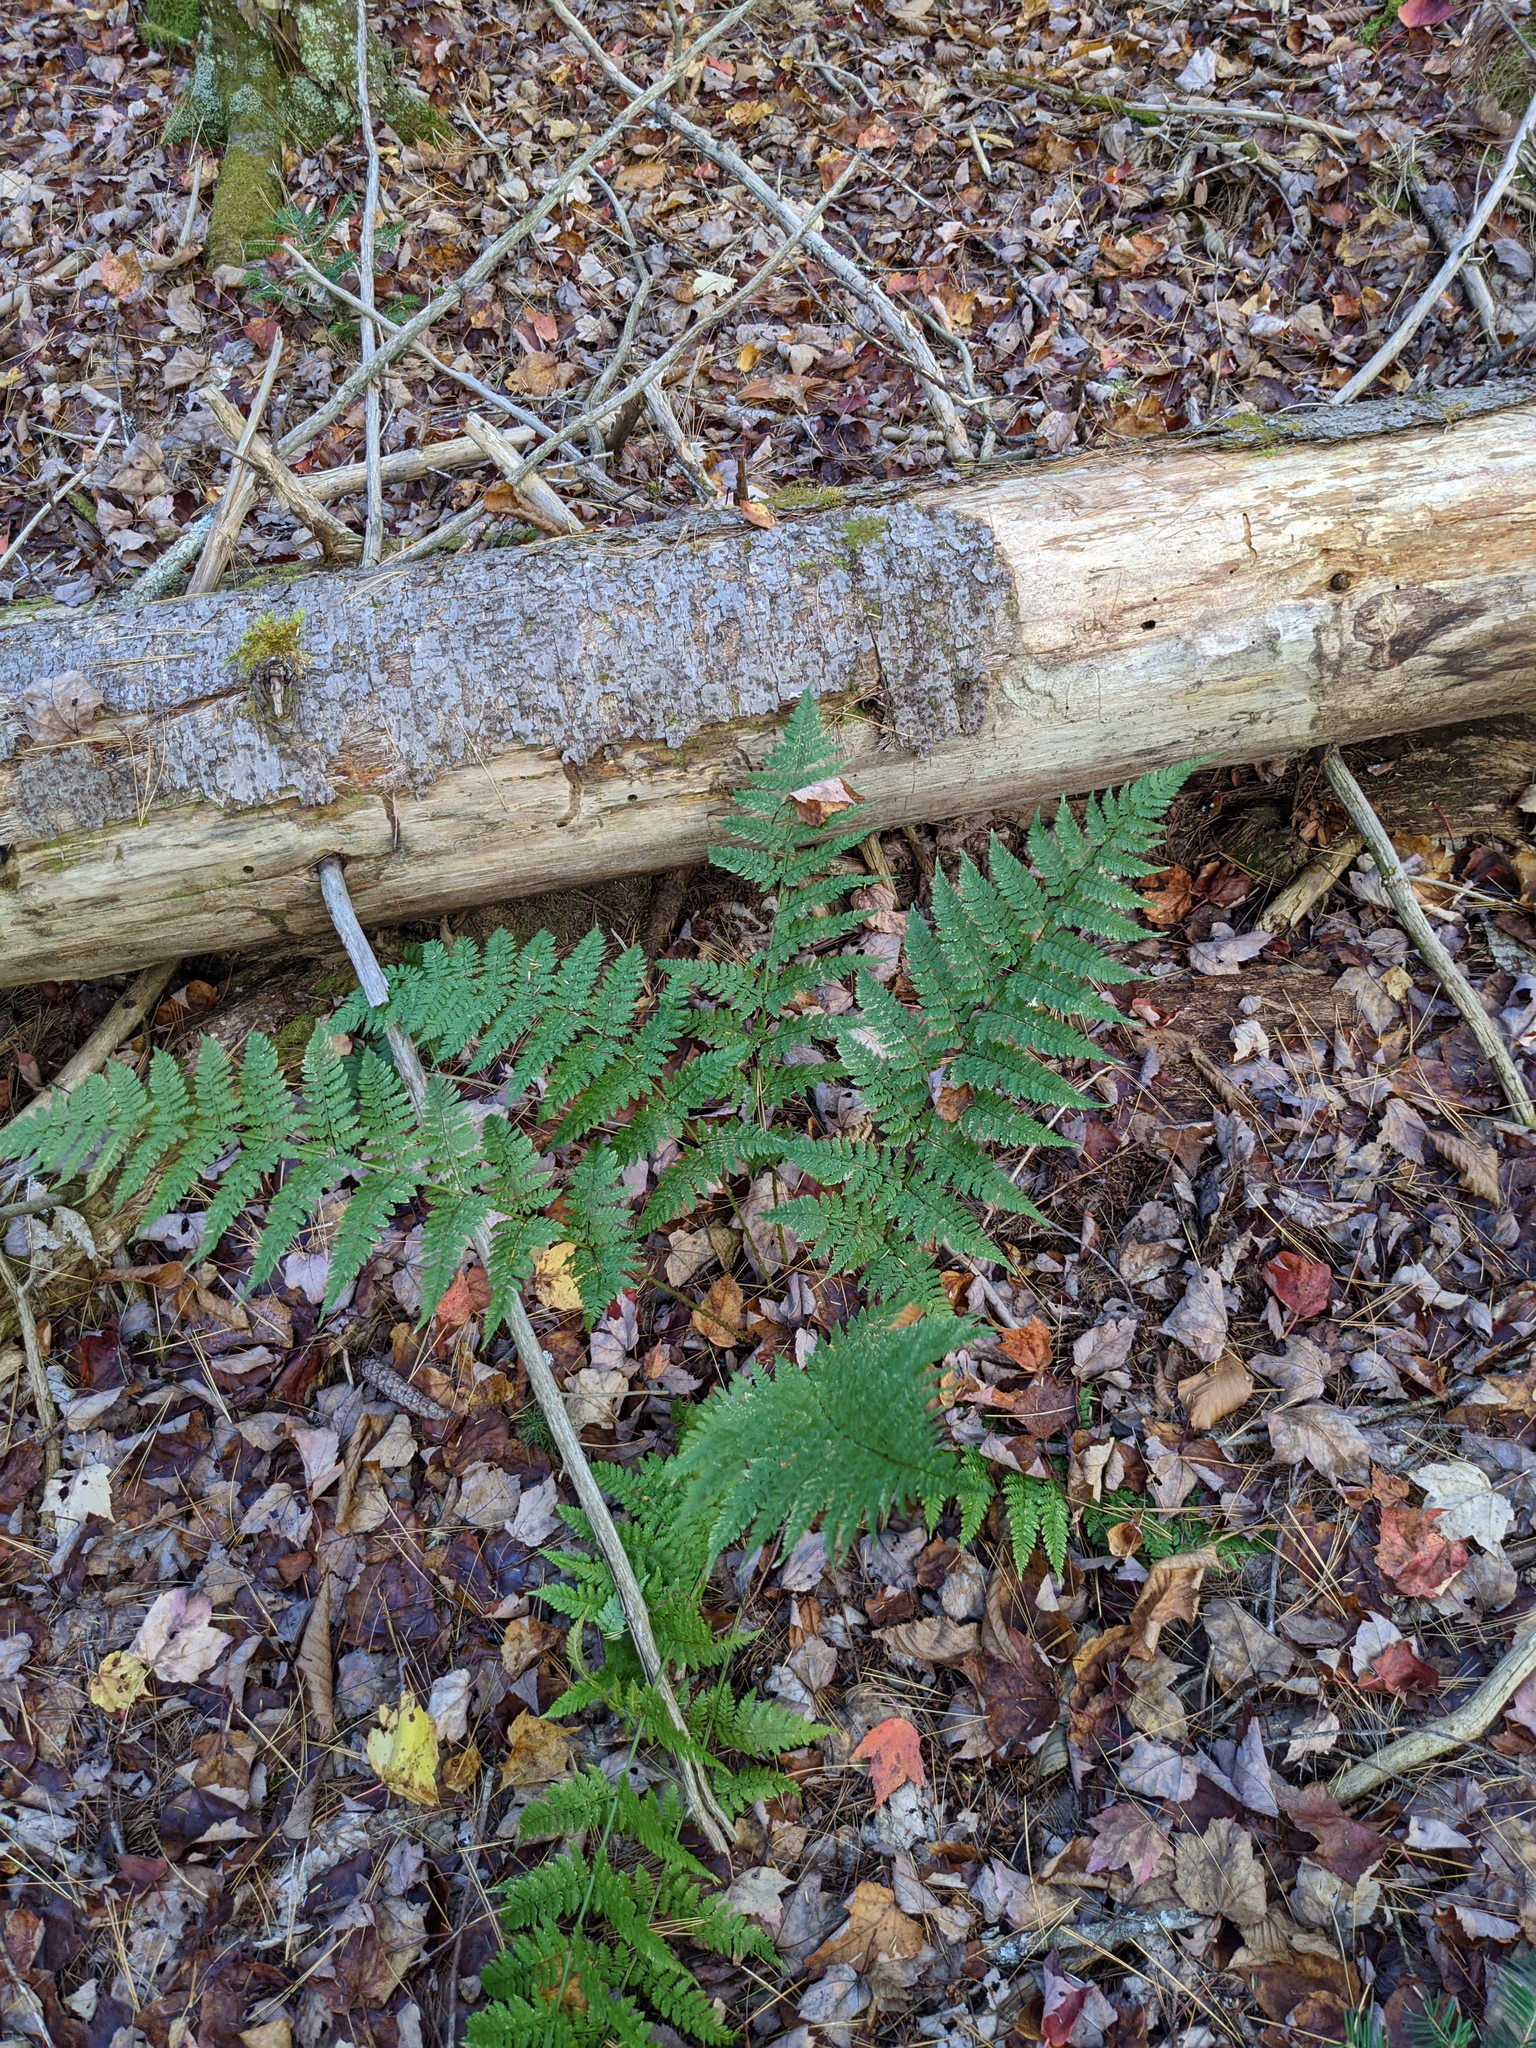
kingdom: Plantae
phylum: Tracheophyta
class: Polypodiopsida
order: Polypodiales
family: Dryopteridaceae
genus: Dryopteris
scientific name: Dryopteris intermedia
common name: Evergreen wood fern
